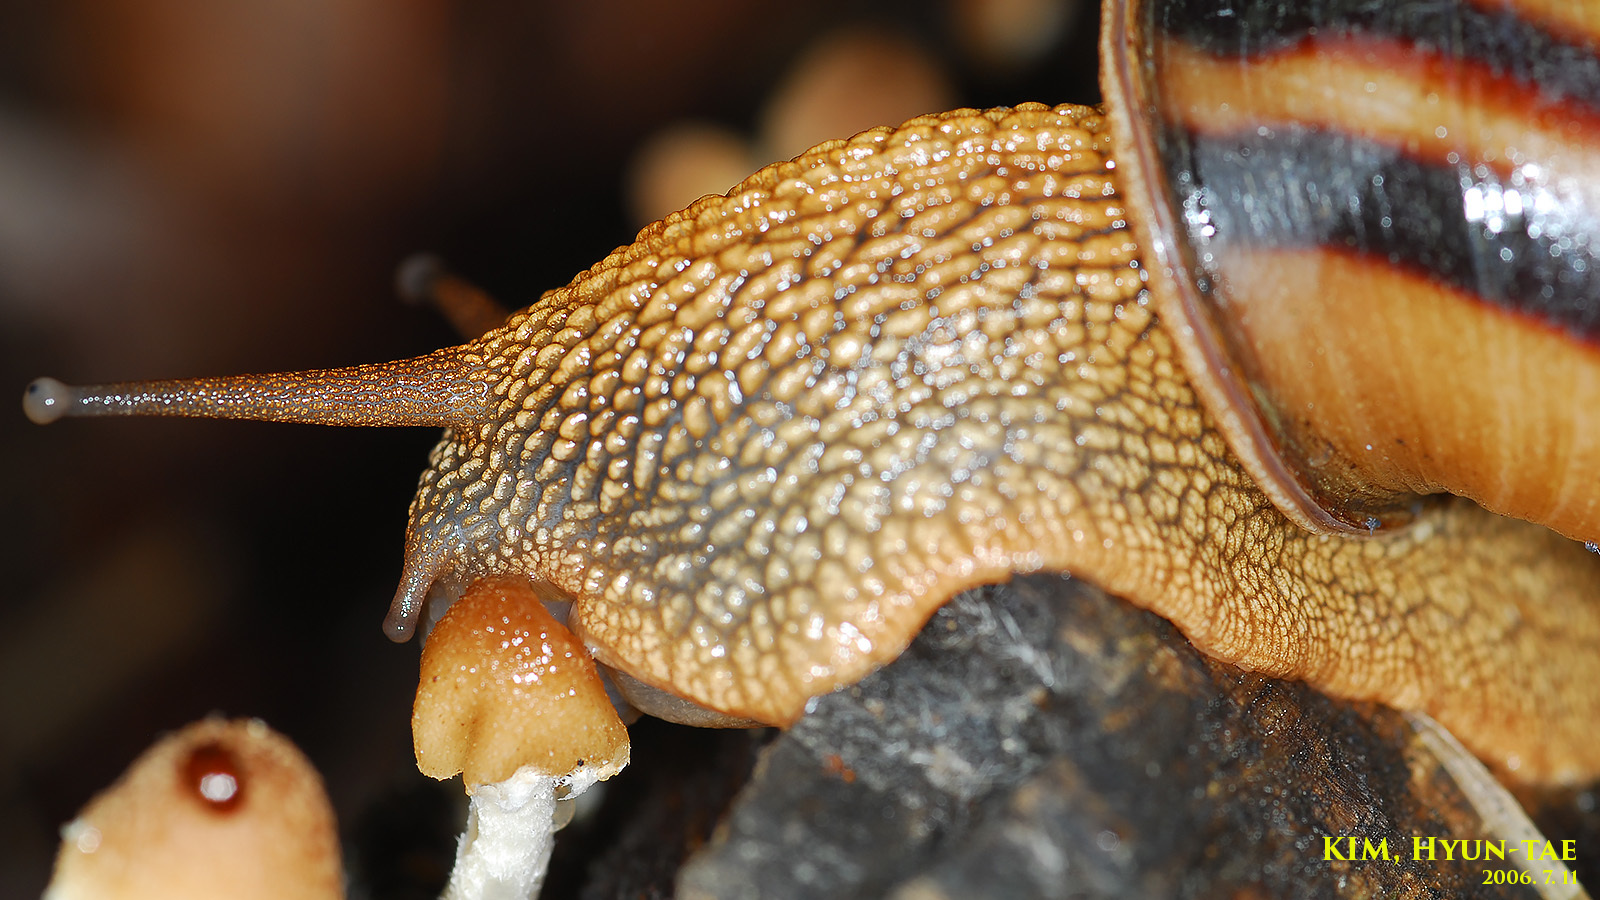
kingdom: Animalia
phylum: Mollusca
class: Gastropoda
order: Stylommatophora
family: Camaenidae
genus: Nesiohelix
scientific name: Nesiohelix samarangae
